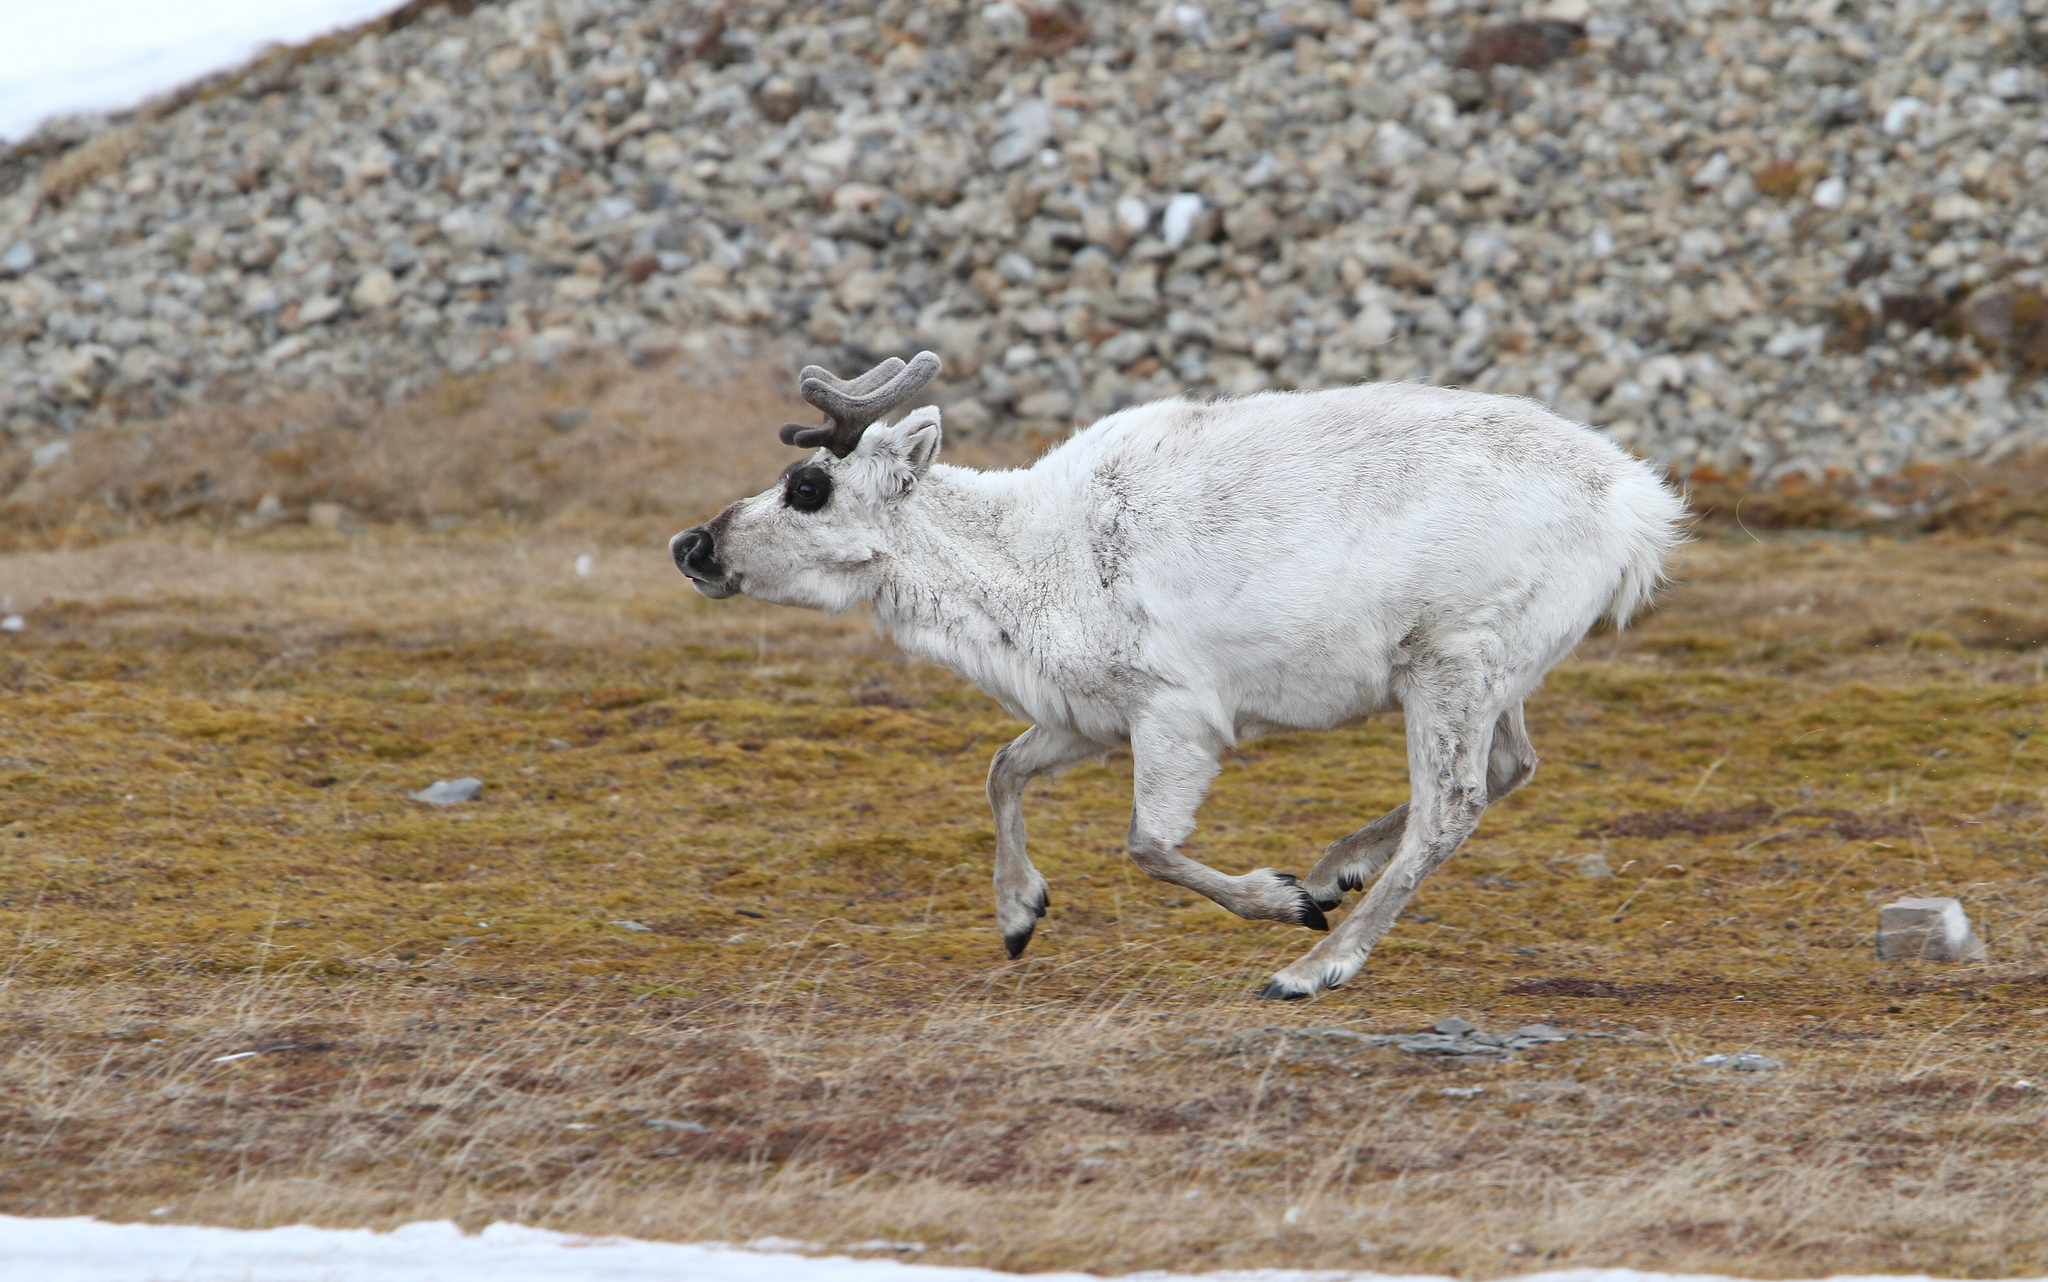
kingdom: Animalia
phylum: Chordata
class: Mammalia
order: Artiodactyla
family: Cervidae
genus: Rangifer
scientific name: Rangifer tarandus
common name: Reindeer
